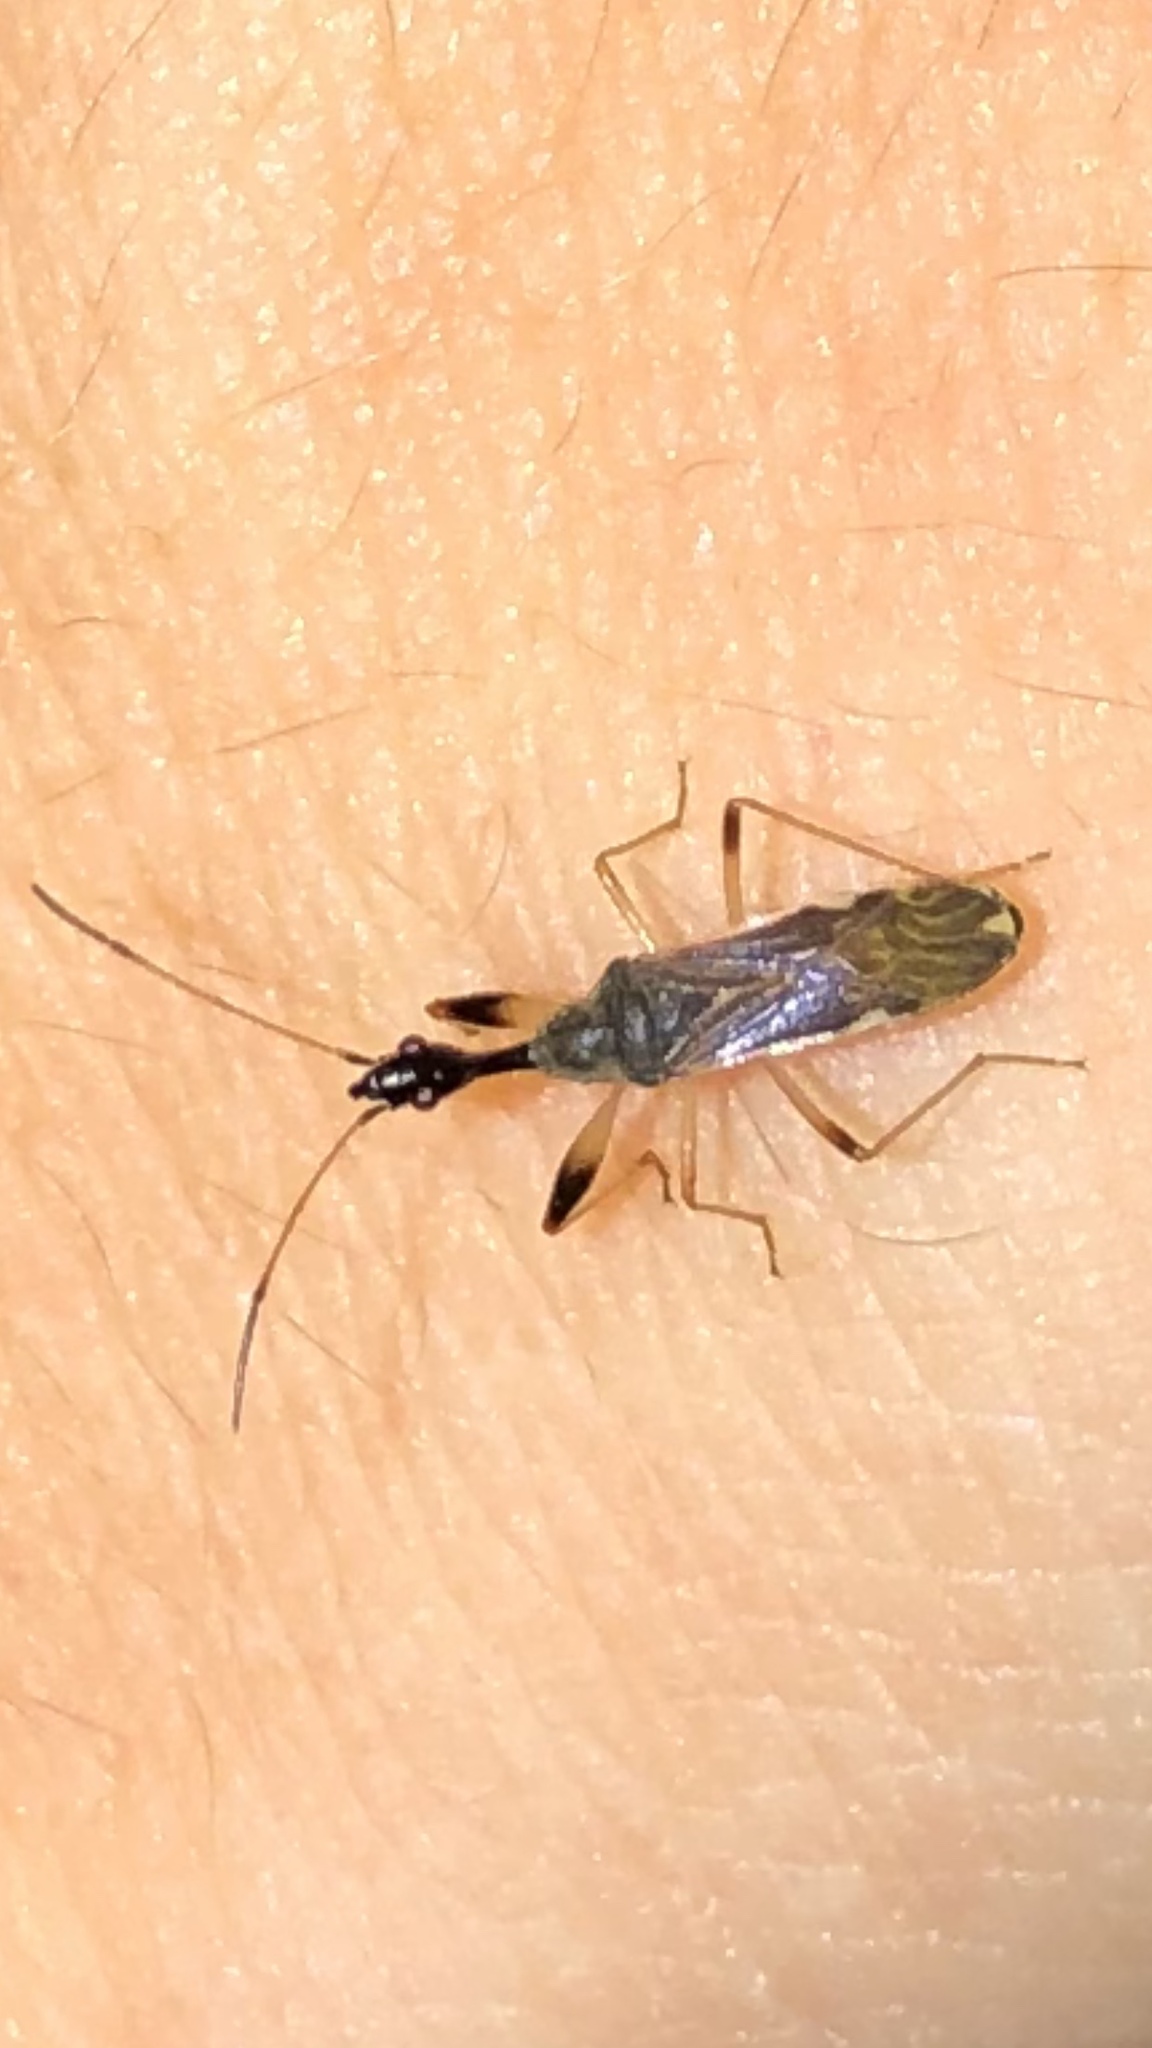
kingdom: Animalia
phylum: Arthropoda
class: Insecta
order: Hemiptera
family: Rhyparochromidae
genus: Myodocha
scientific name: Myodocha serripes
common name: Long-necked seed bug
